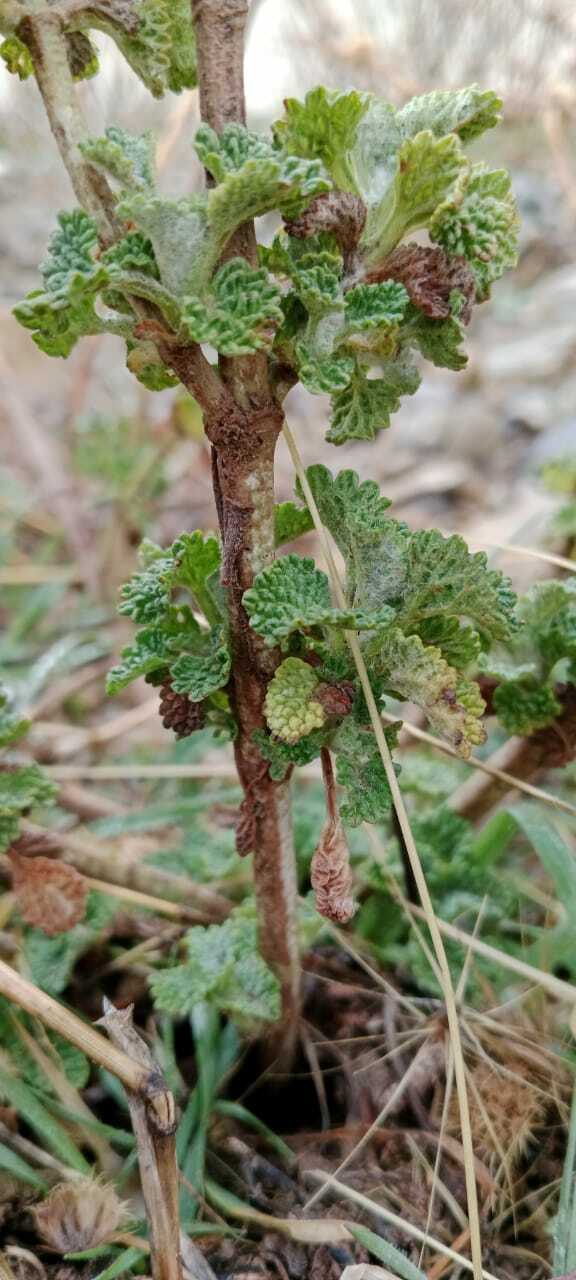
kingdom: Plantae
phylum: Tracheophyta
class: Magnoliopsida
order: Lamiales
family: Lamiaceae
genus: Marrubium
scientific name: Marrubium vulgare
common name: Horehound
